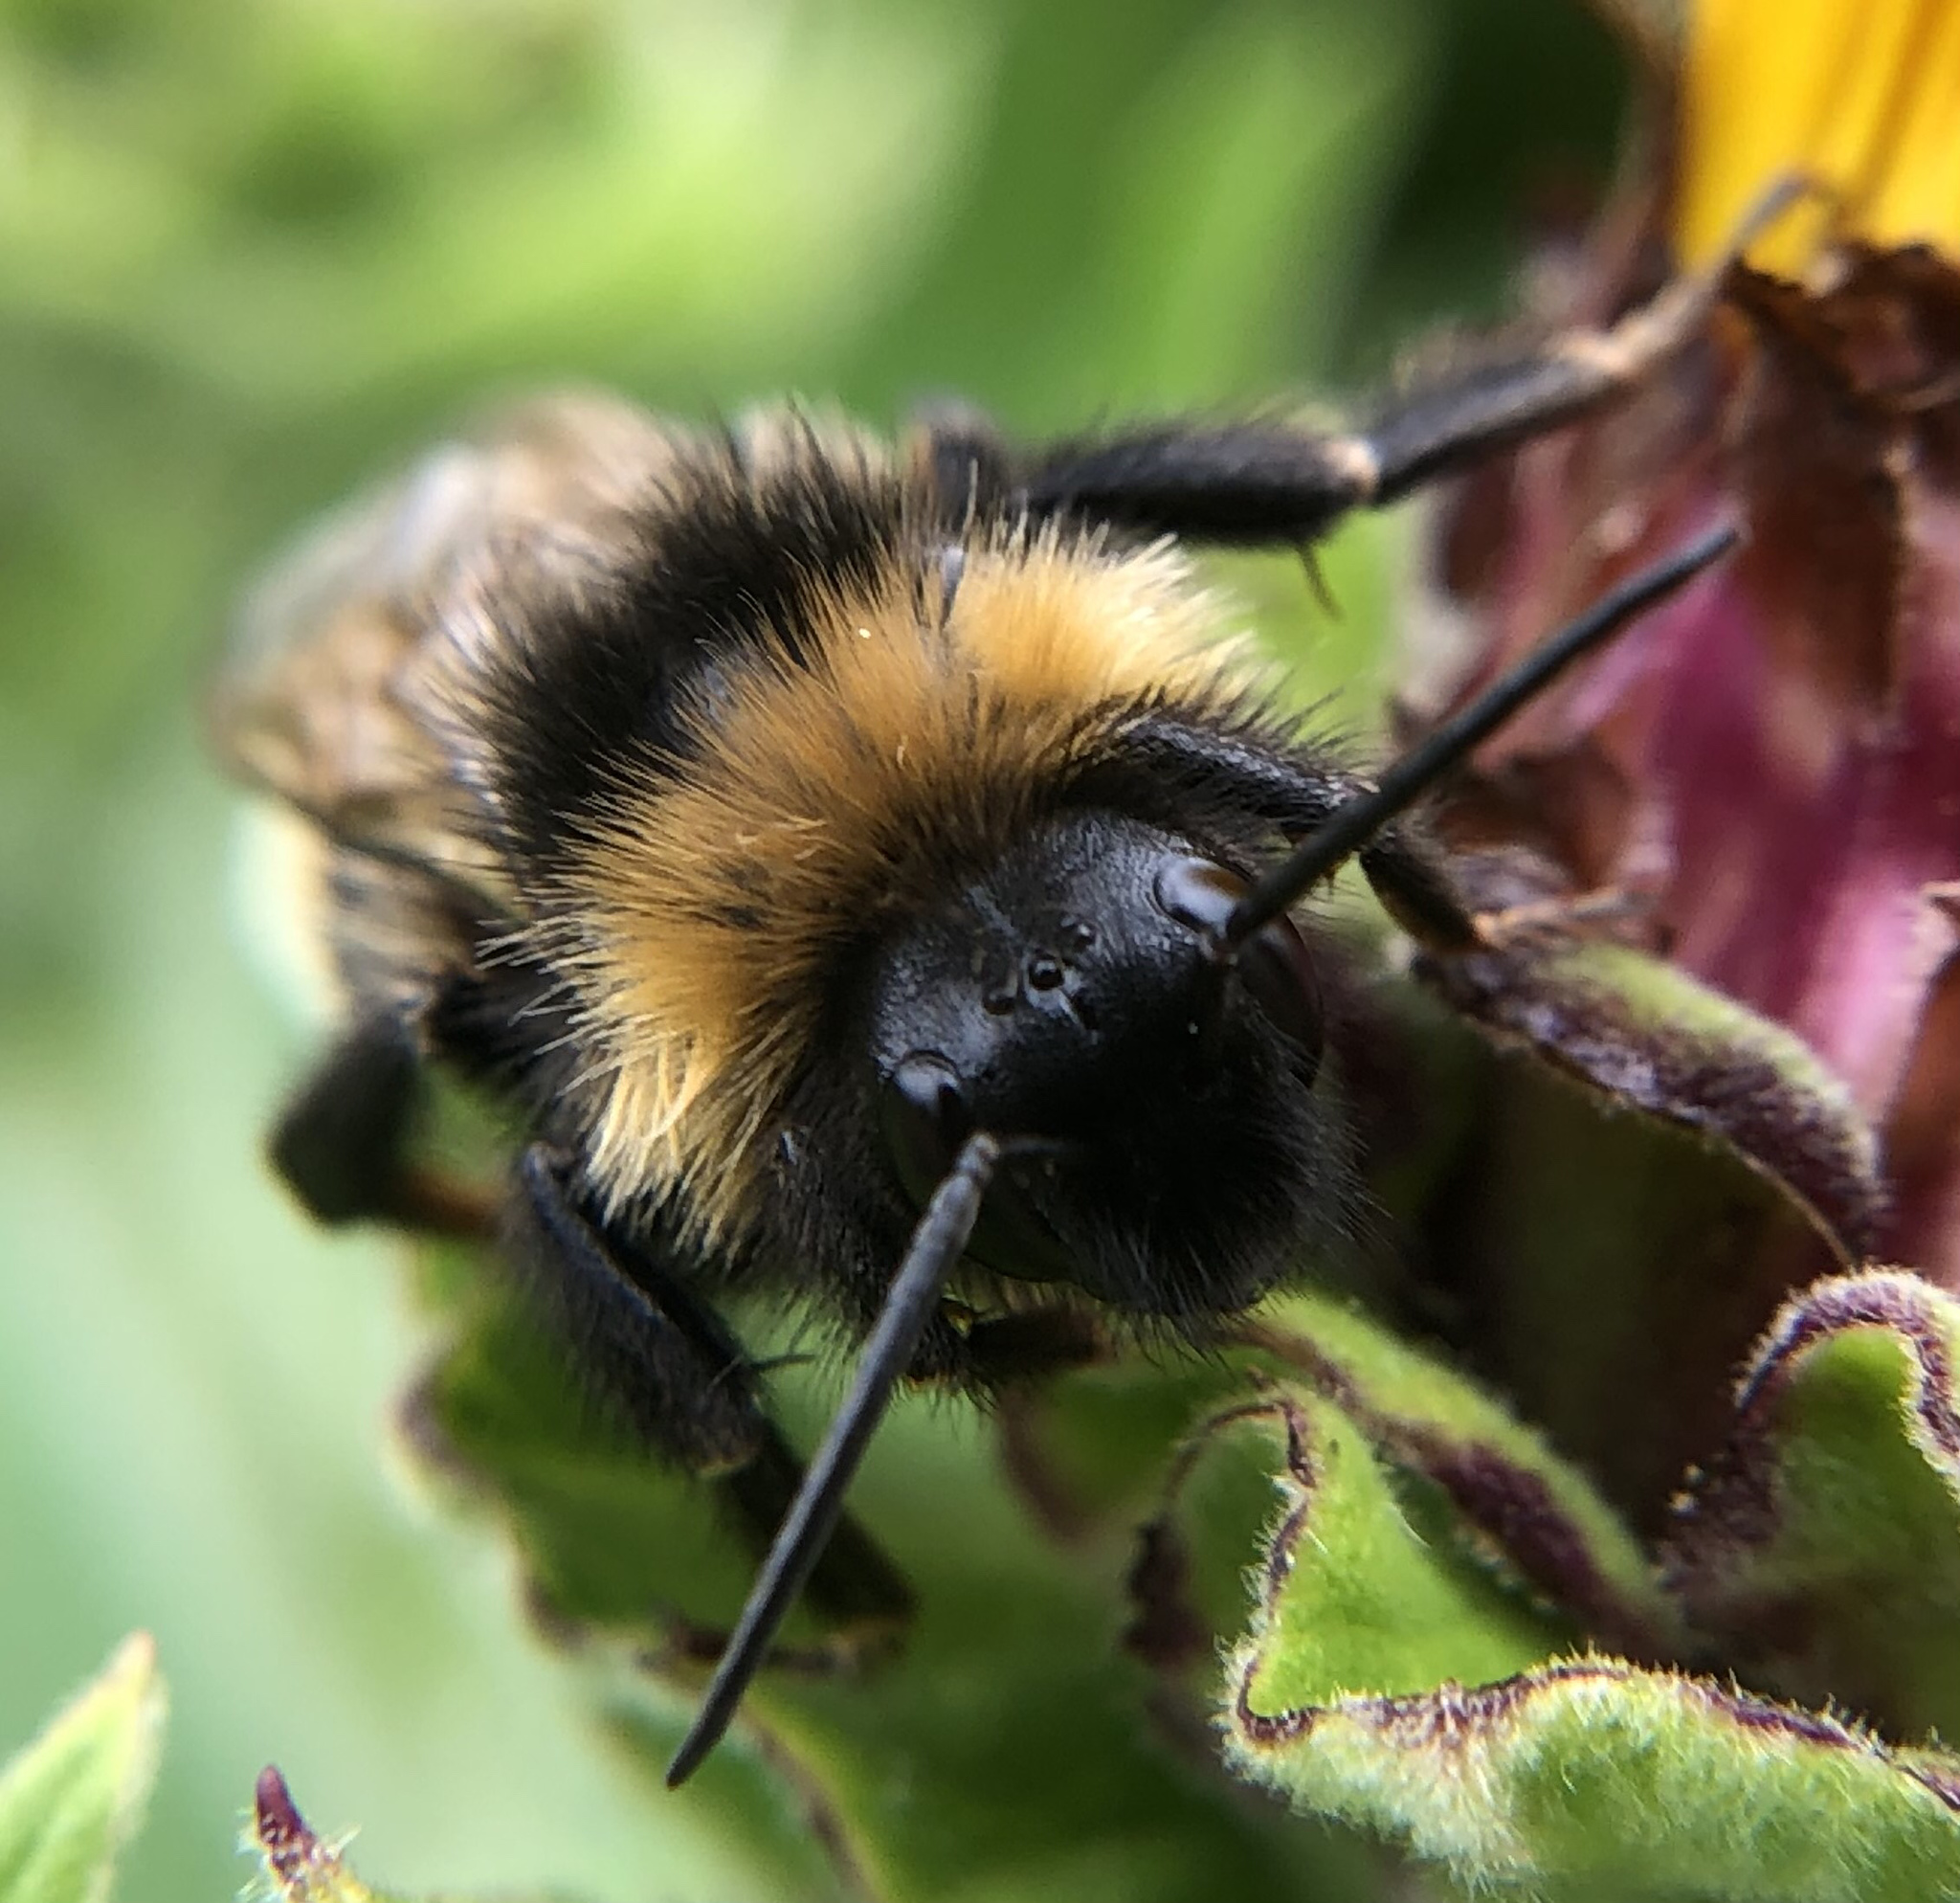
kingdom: Animalia
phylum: Arthropoda
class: Insecta
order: Hymenoptera
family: Apidae
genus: Bombus
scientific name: Bombus vestalis
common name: Vestal cuckoo bee
